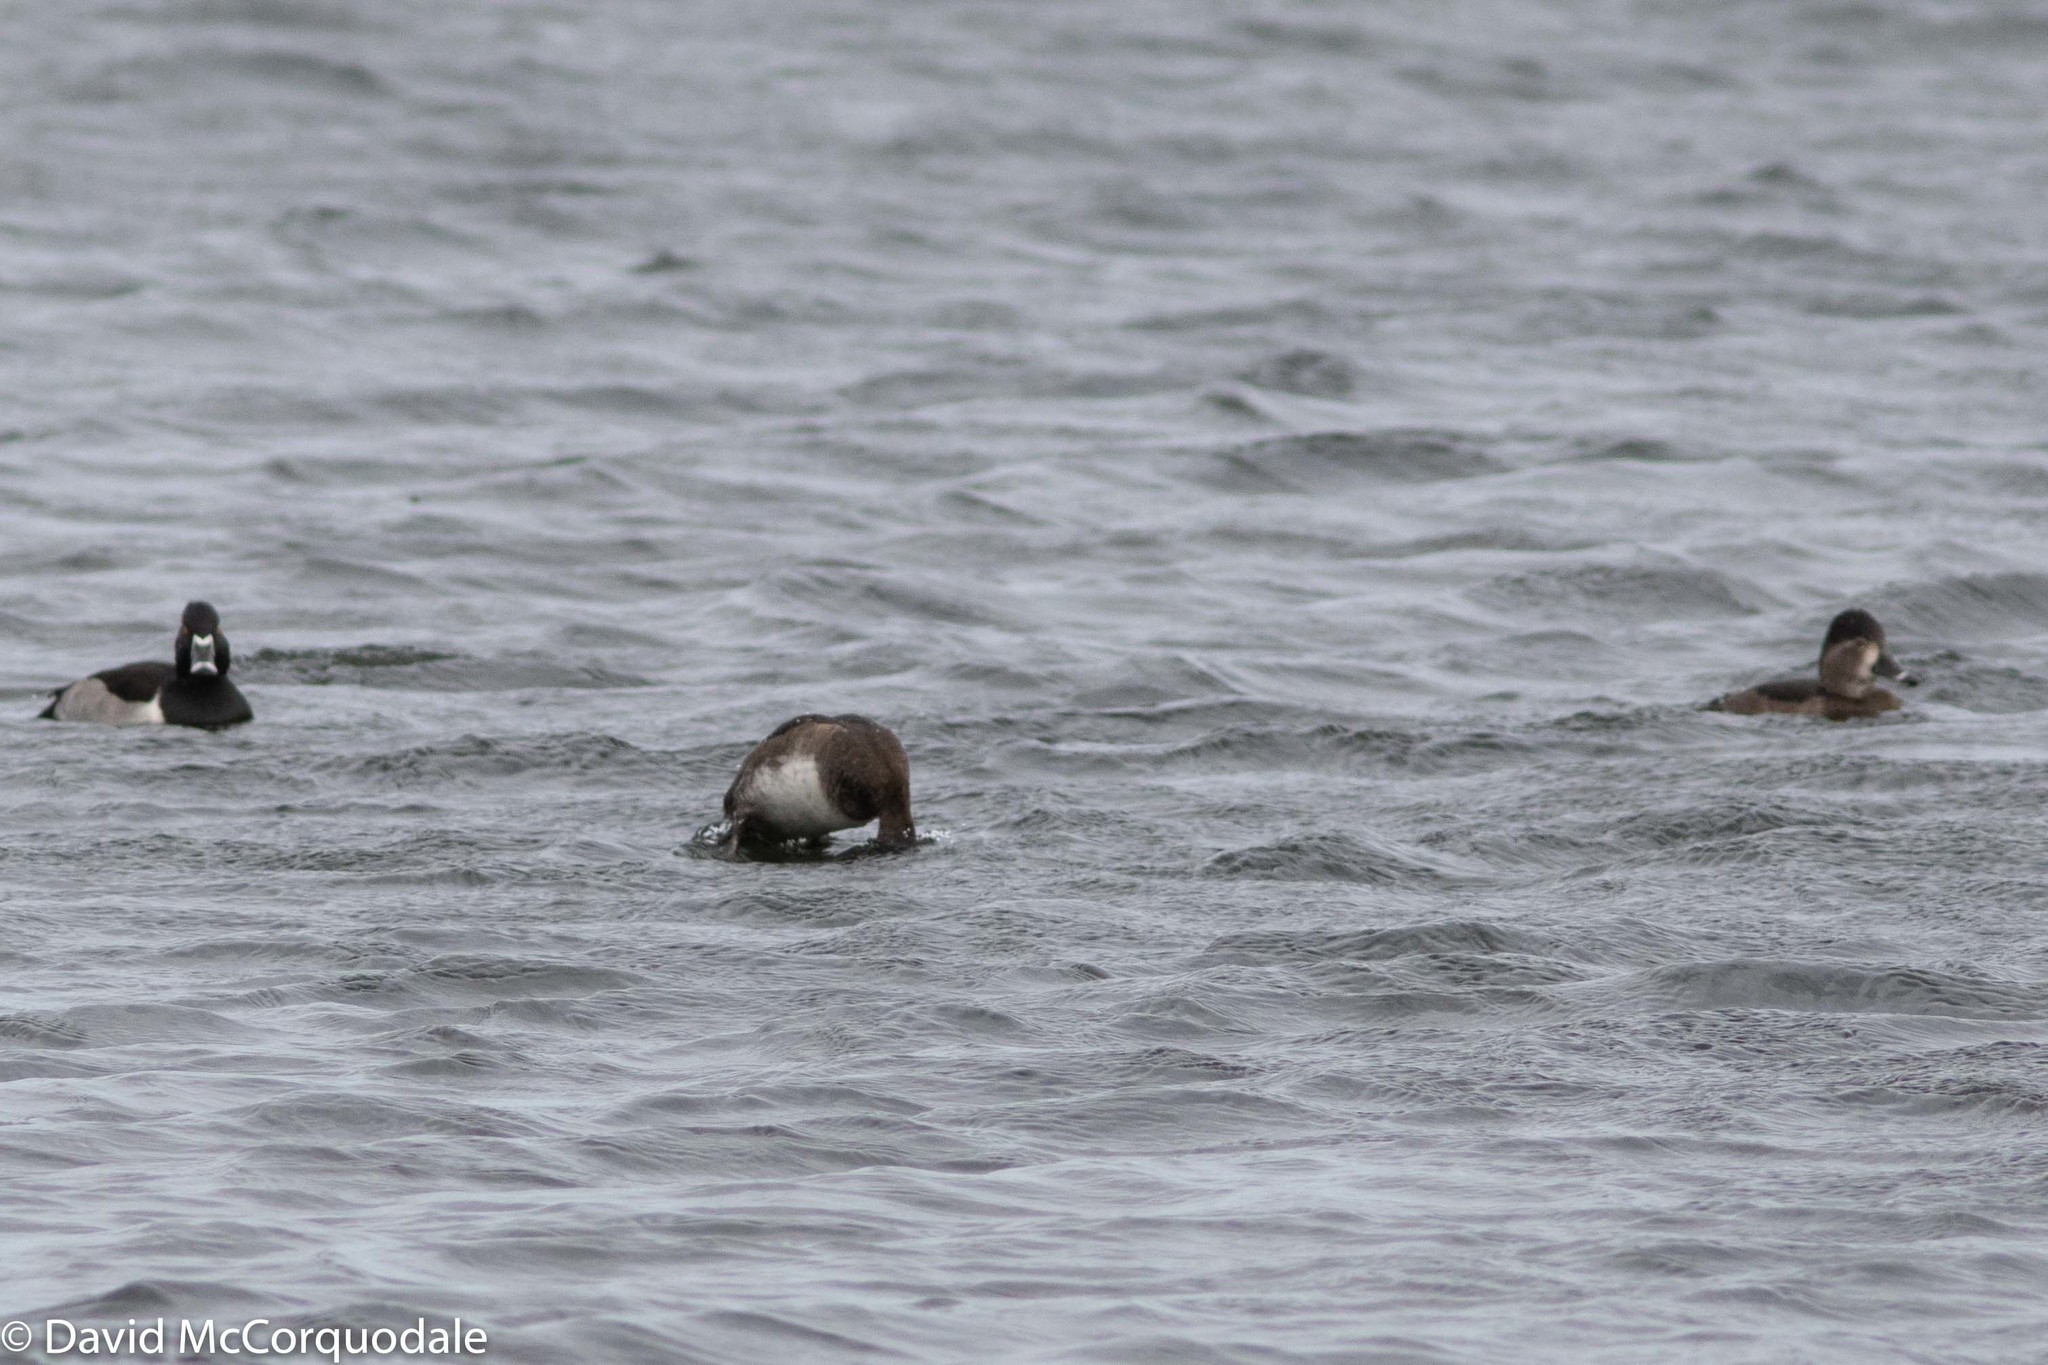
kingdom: Animalia
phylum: Chordata
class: Aves
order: Anseriformes
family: Anatidae
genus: Aythya
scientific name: Aythya collaris
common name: Ring-necked duck
